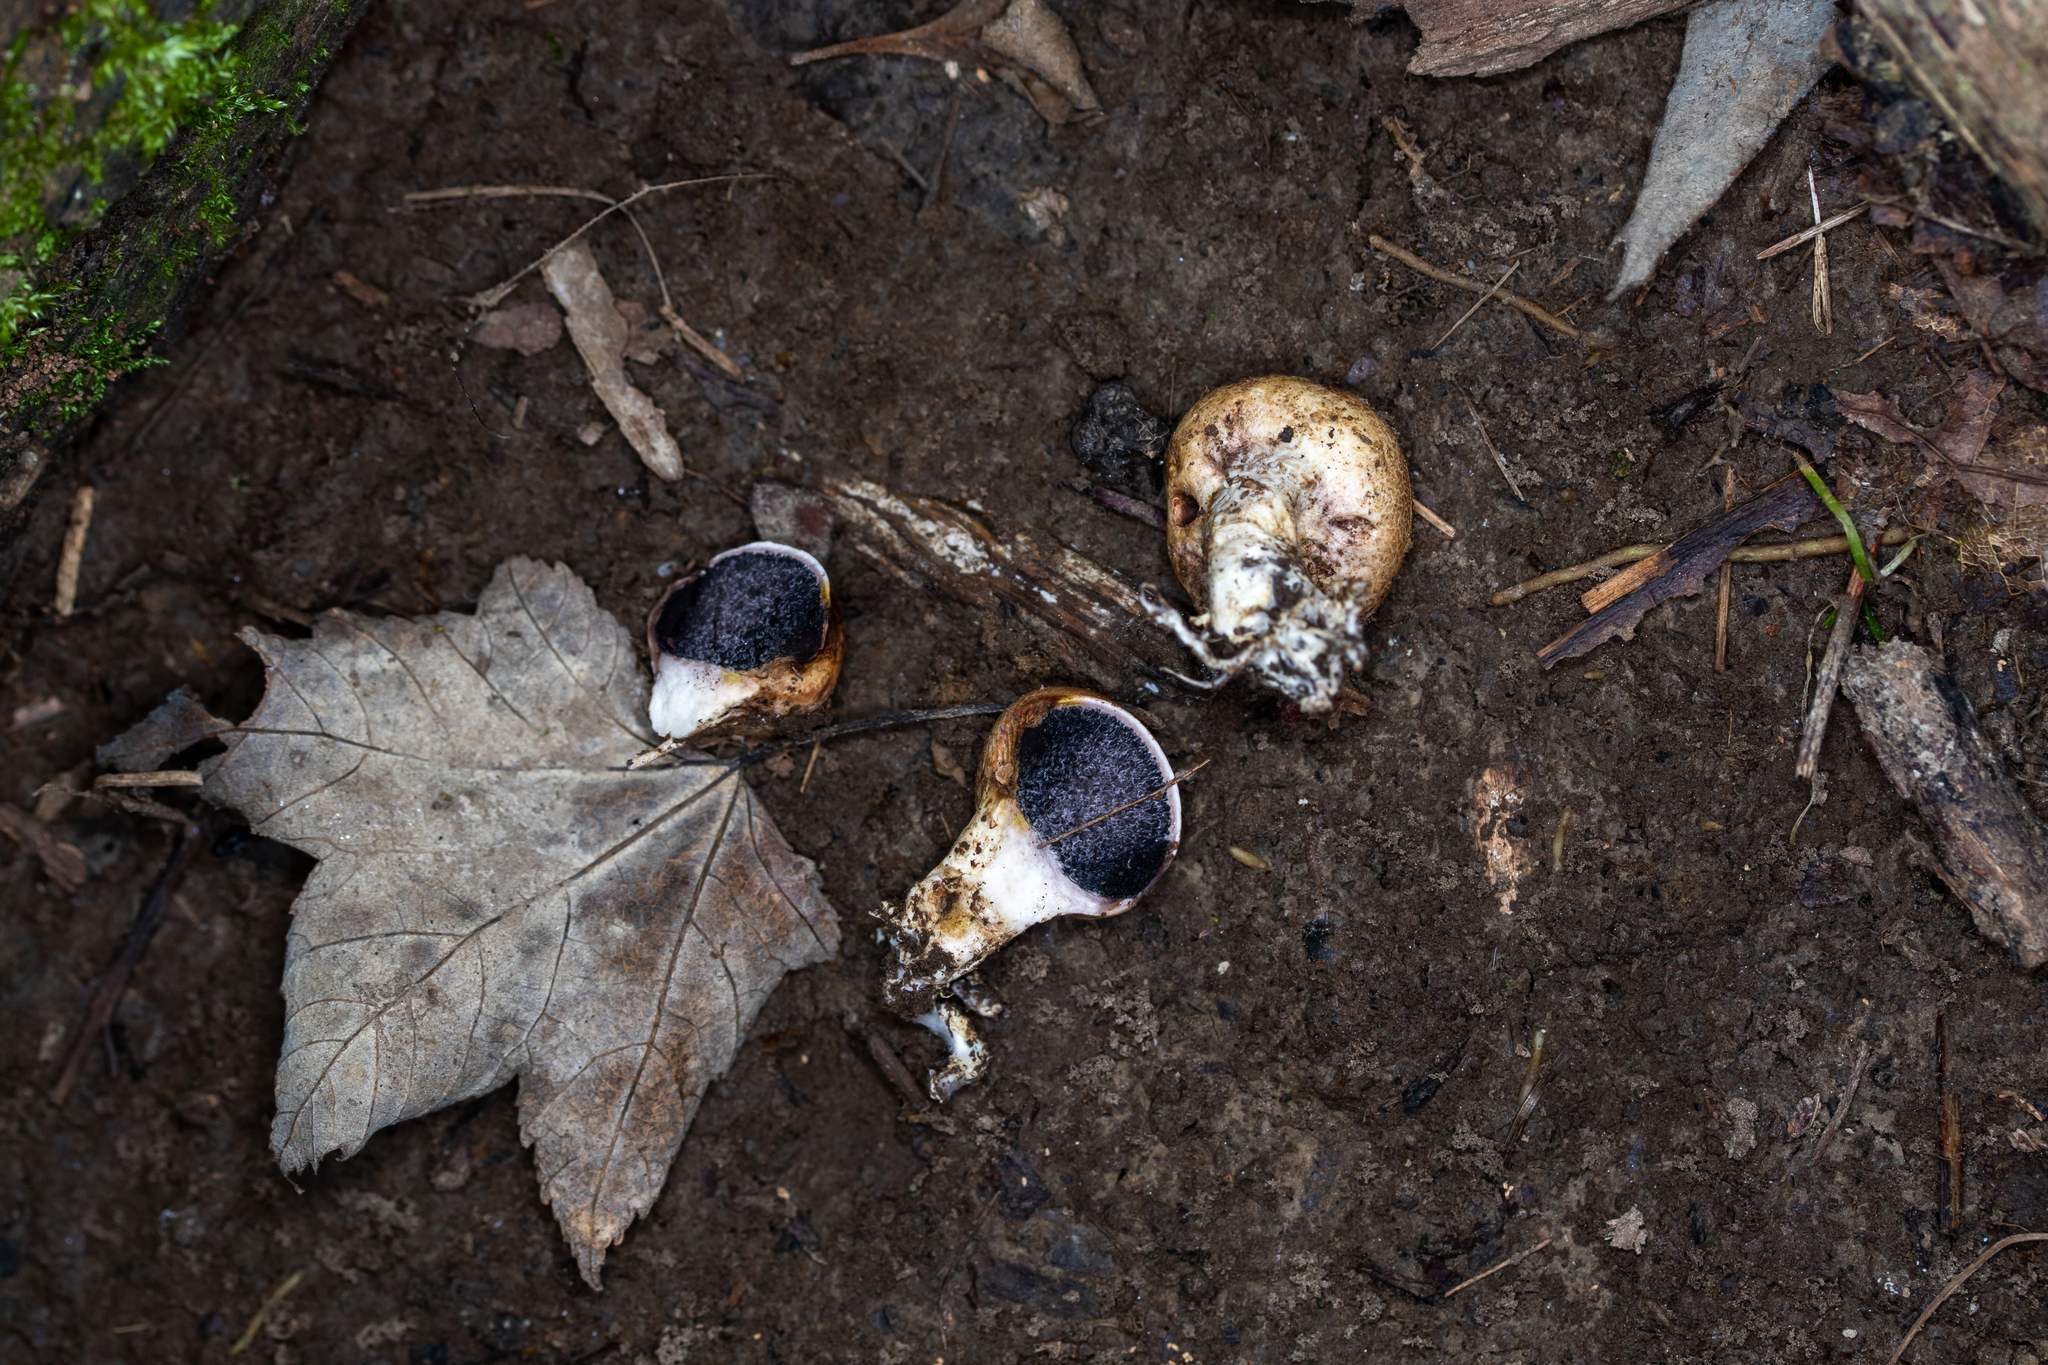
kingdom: Fungi
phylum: Basidiomycota
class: Agaricomycetes
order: Boletales
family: Sclerodermataceae
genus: Scleroderma
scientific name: Scleroderma cepa
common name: Onion earthball
